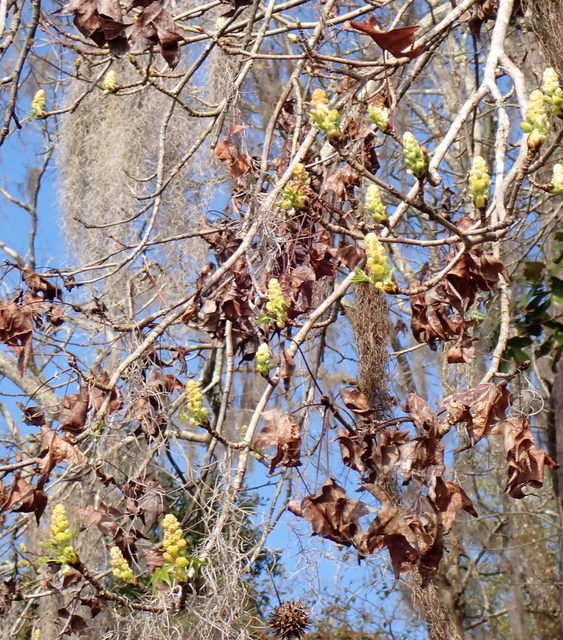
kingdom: Plantae
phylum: Tracheophyta
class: Magnoliopsida
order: Saxifragales
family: Altingiaceae
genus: Liquidambar
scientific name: Liquidambar styraciflua
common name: Sweet gum
